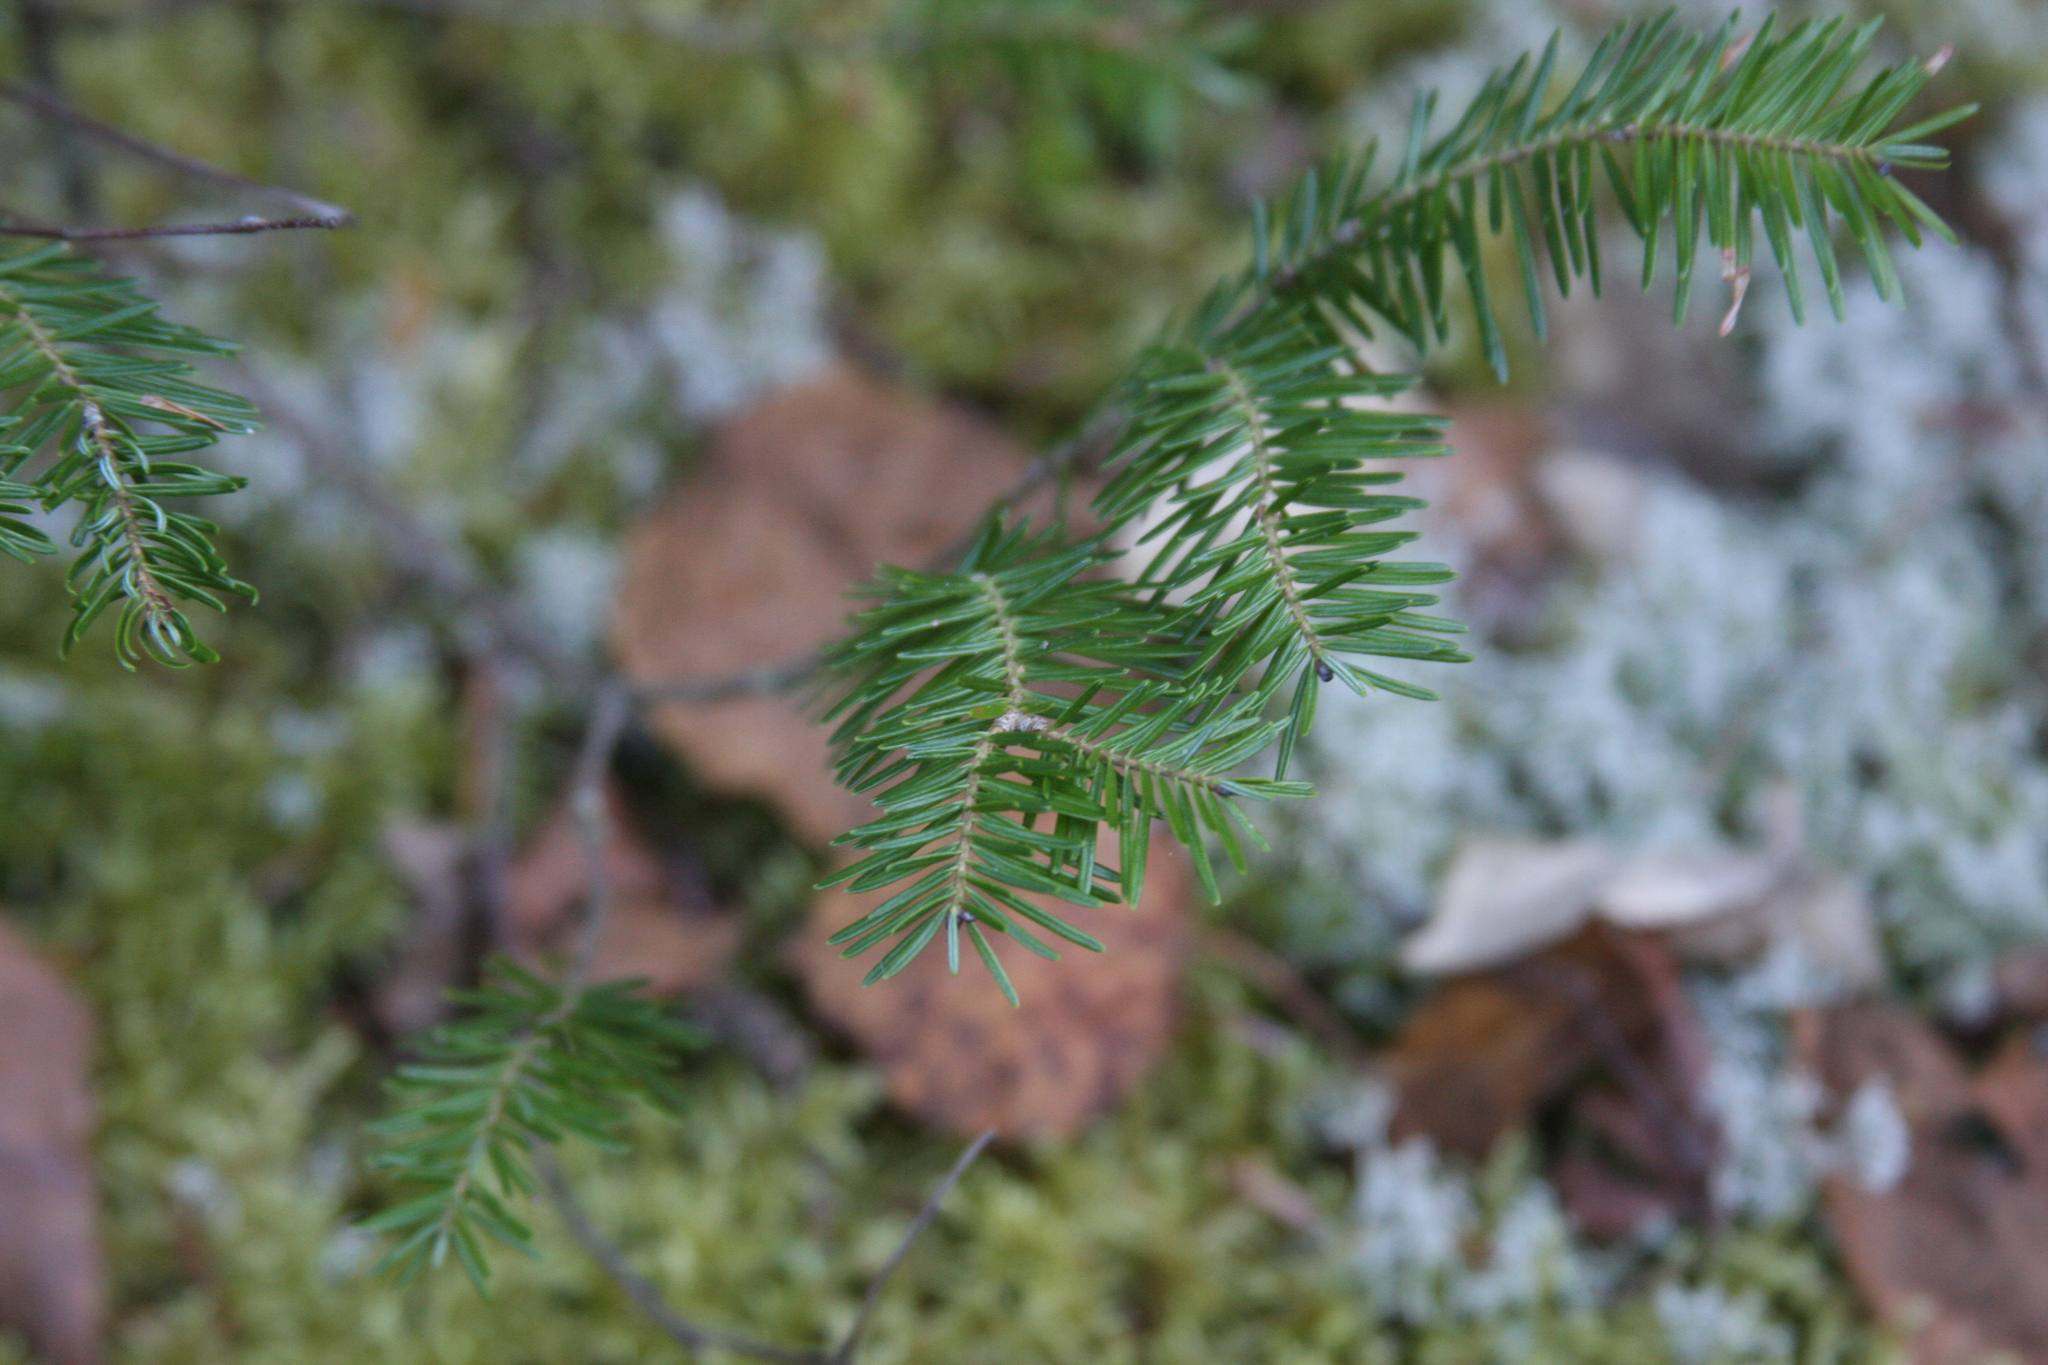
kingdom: Plantae
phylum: Tracheophyta
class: Pinopsida
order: Pinales
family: Pinaceae
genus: Abies
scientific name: Abies balsamea
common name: Balsam fir
